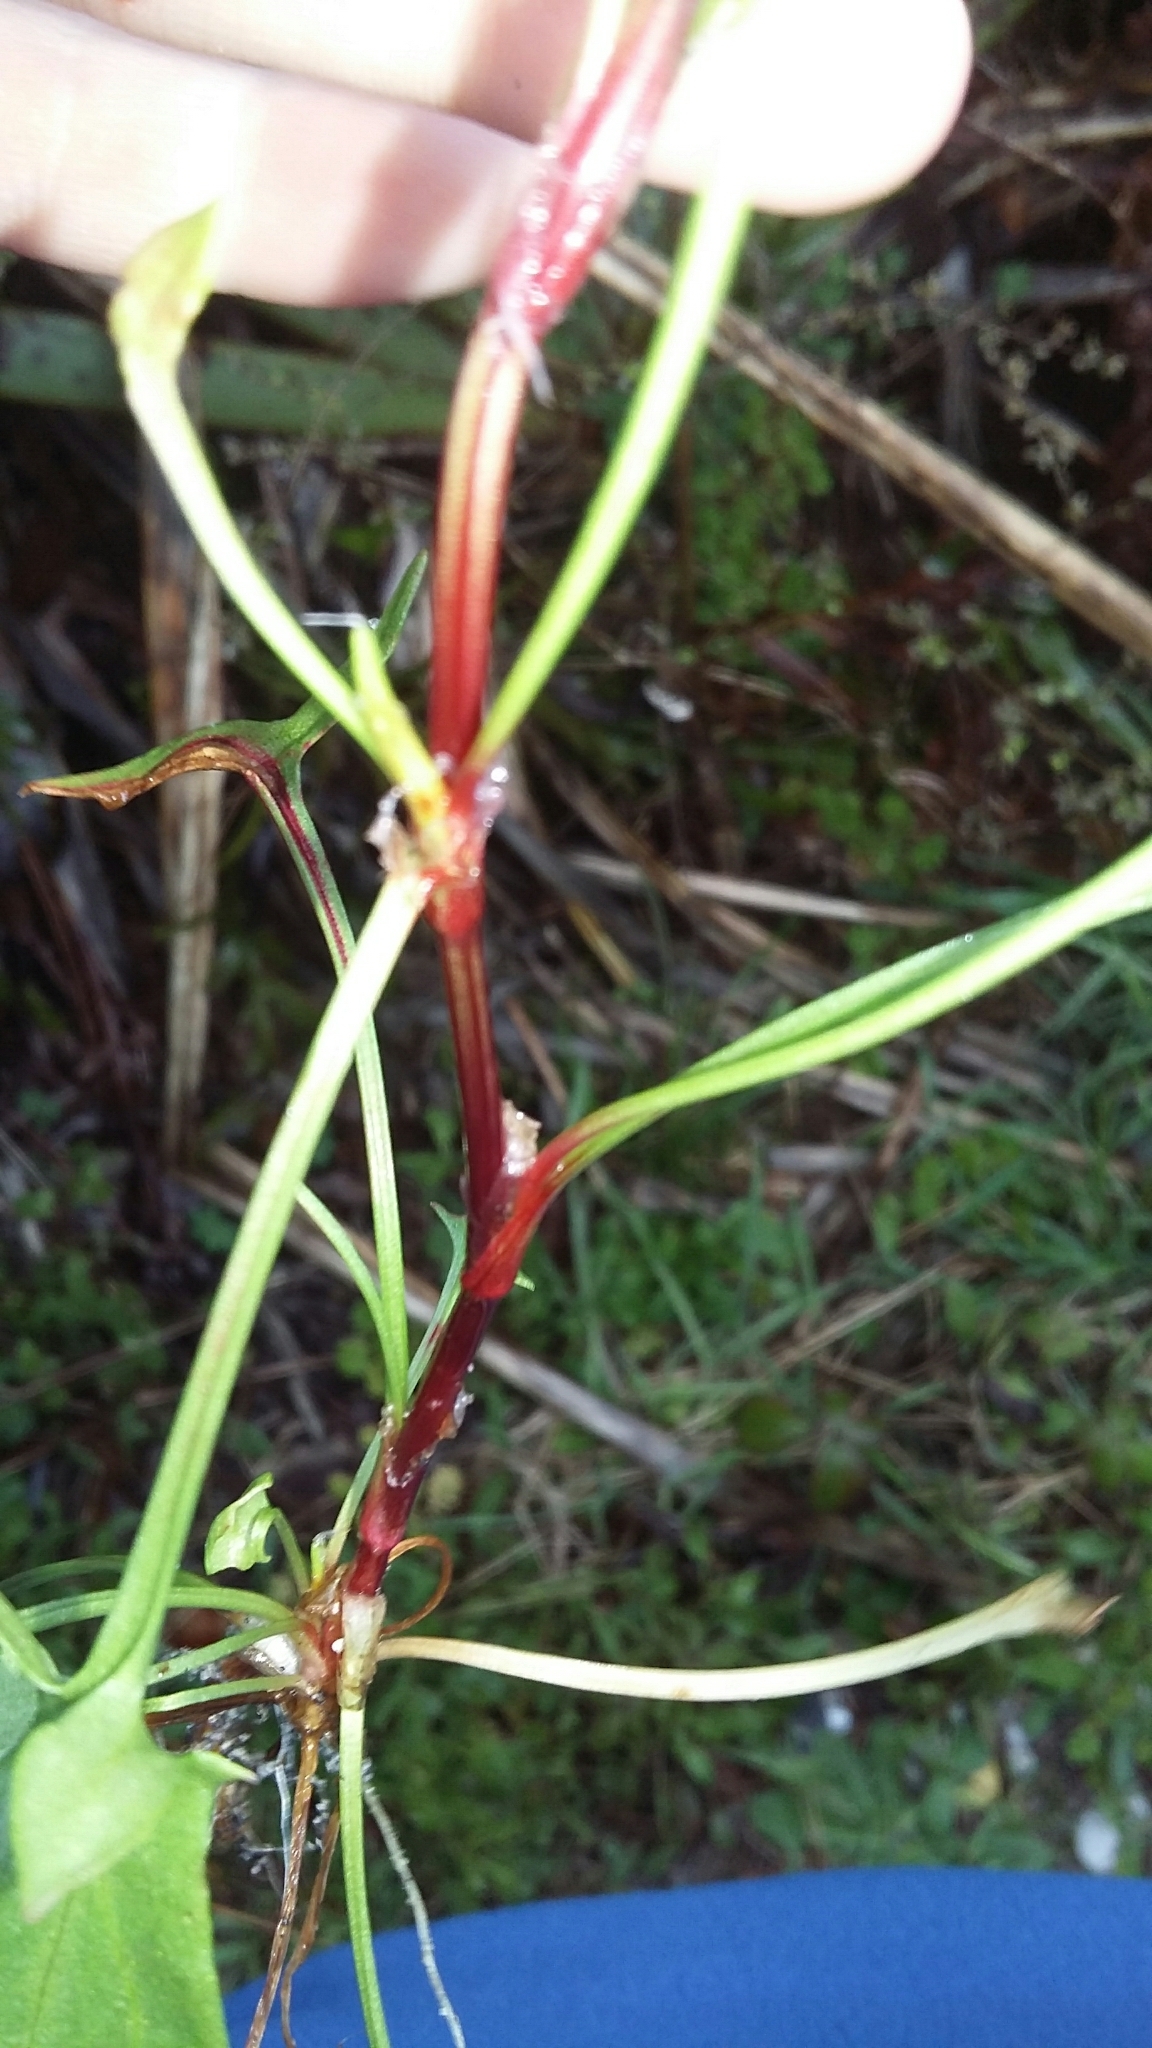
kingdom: Plantae
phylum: Tracheophyta
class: Magnoliopsida
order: Caryophyllales
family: Polygonaceae
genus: Rumex
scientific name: Rumex acetosella
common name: Common sheep sorrel
